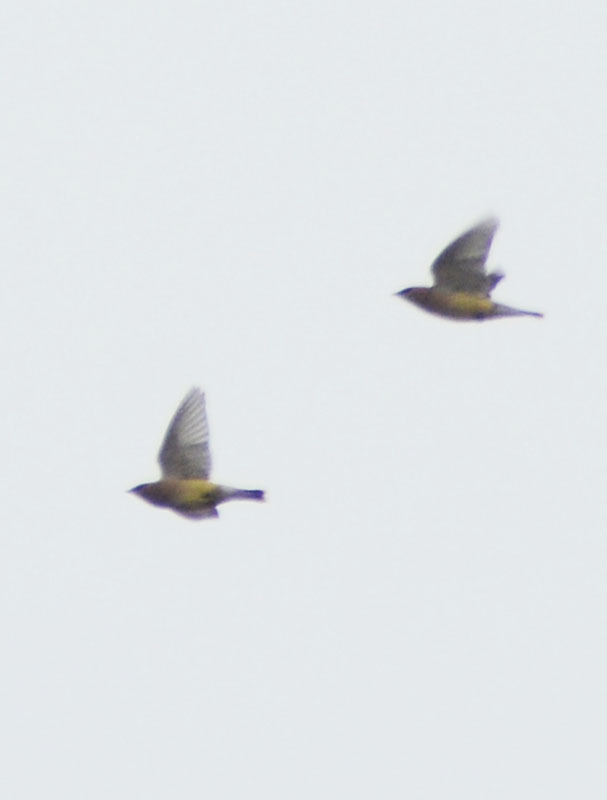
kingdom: Animalia
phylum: Chordata
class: Aves
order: Passeriformes
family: Bombycillidae
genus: Bombycilla
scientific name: Bombycilla cedrorum
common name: Cedar waxwing
